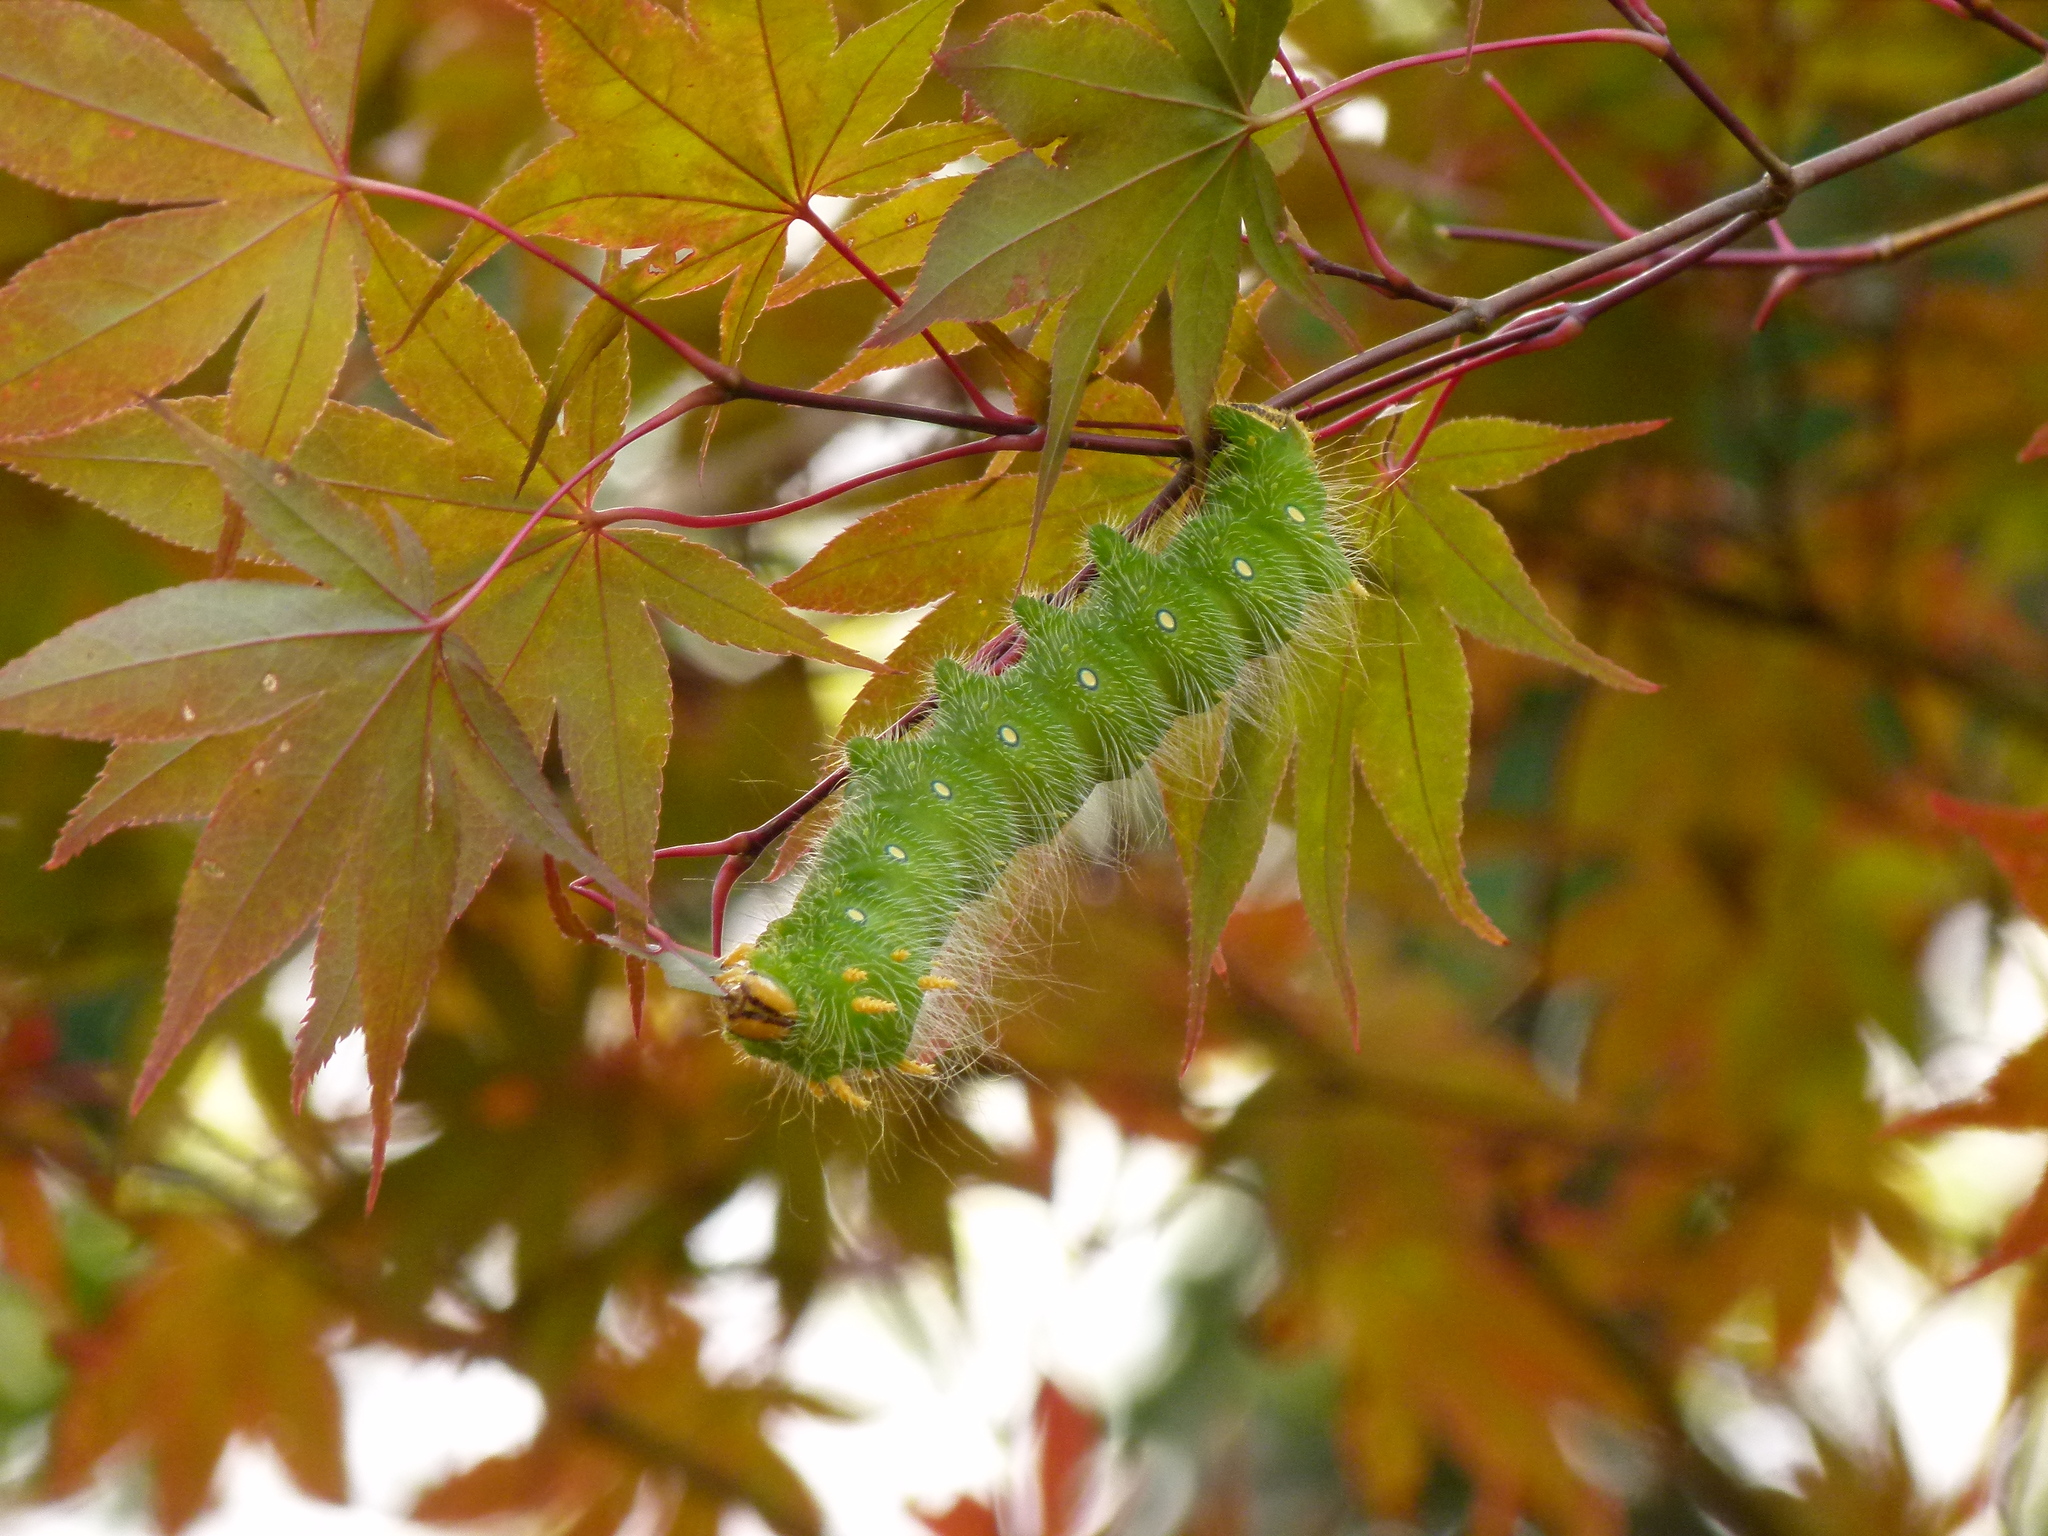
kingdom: Animalia
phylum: Arthropoda
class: Insecta
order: Lepidoptera
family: Saturniidae
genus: Eacles
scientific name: Eacles imperialis
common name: Imperial moth
